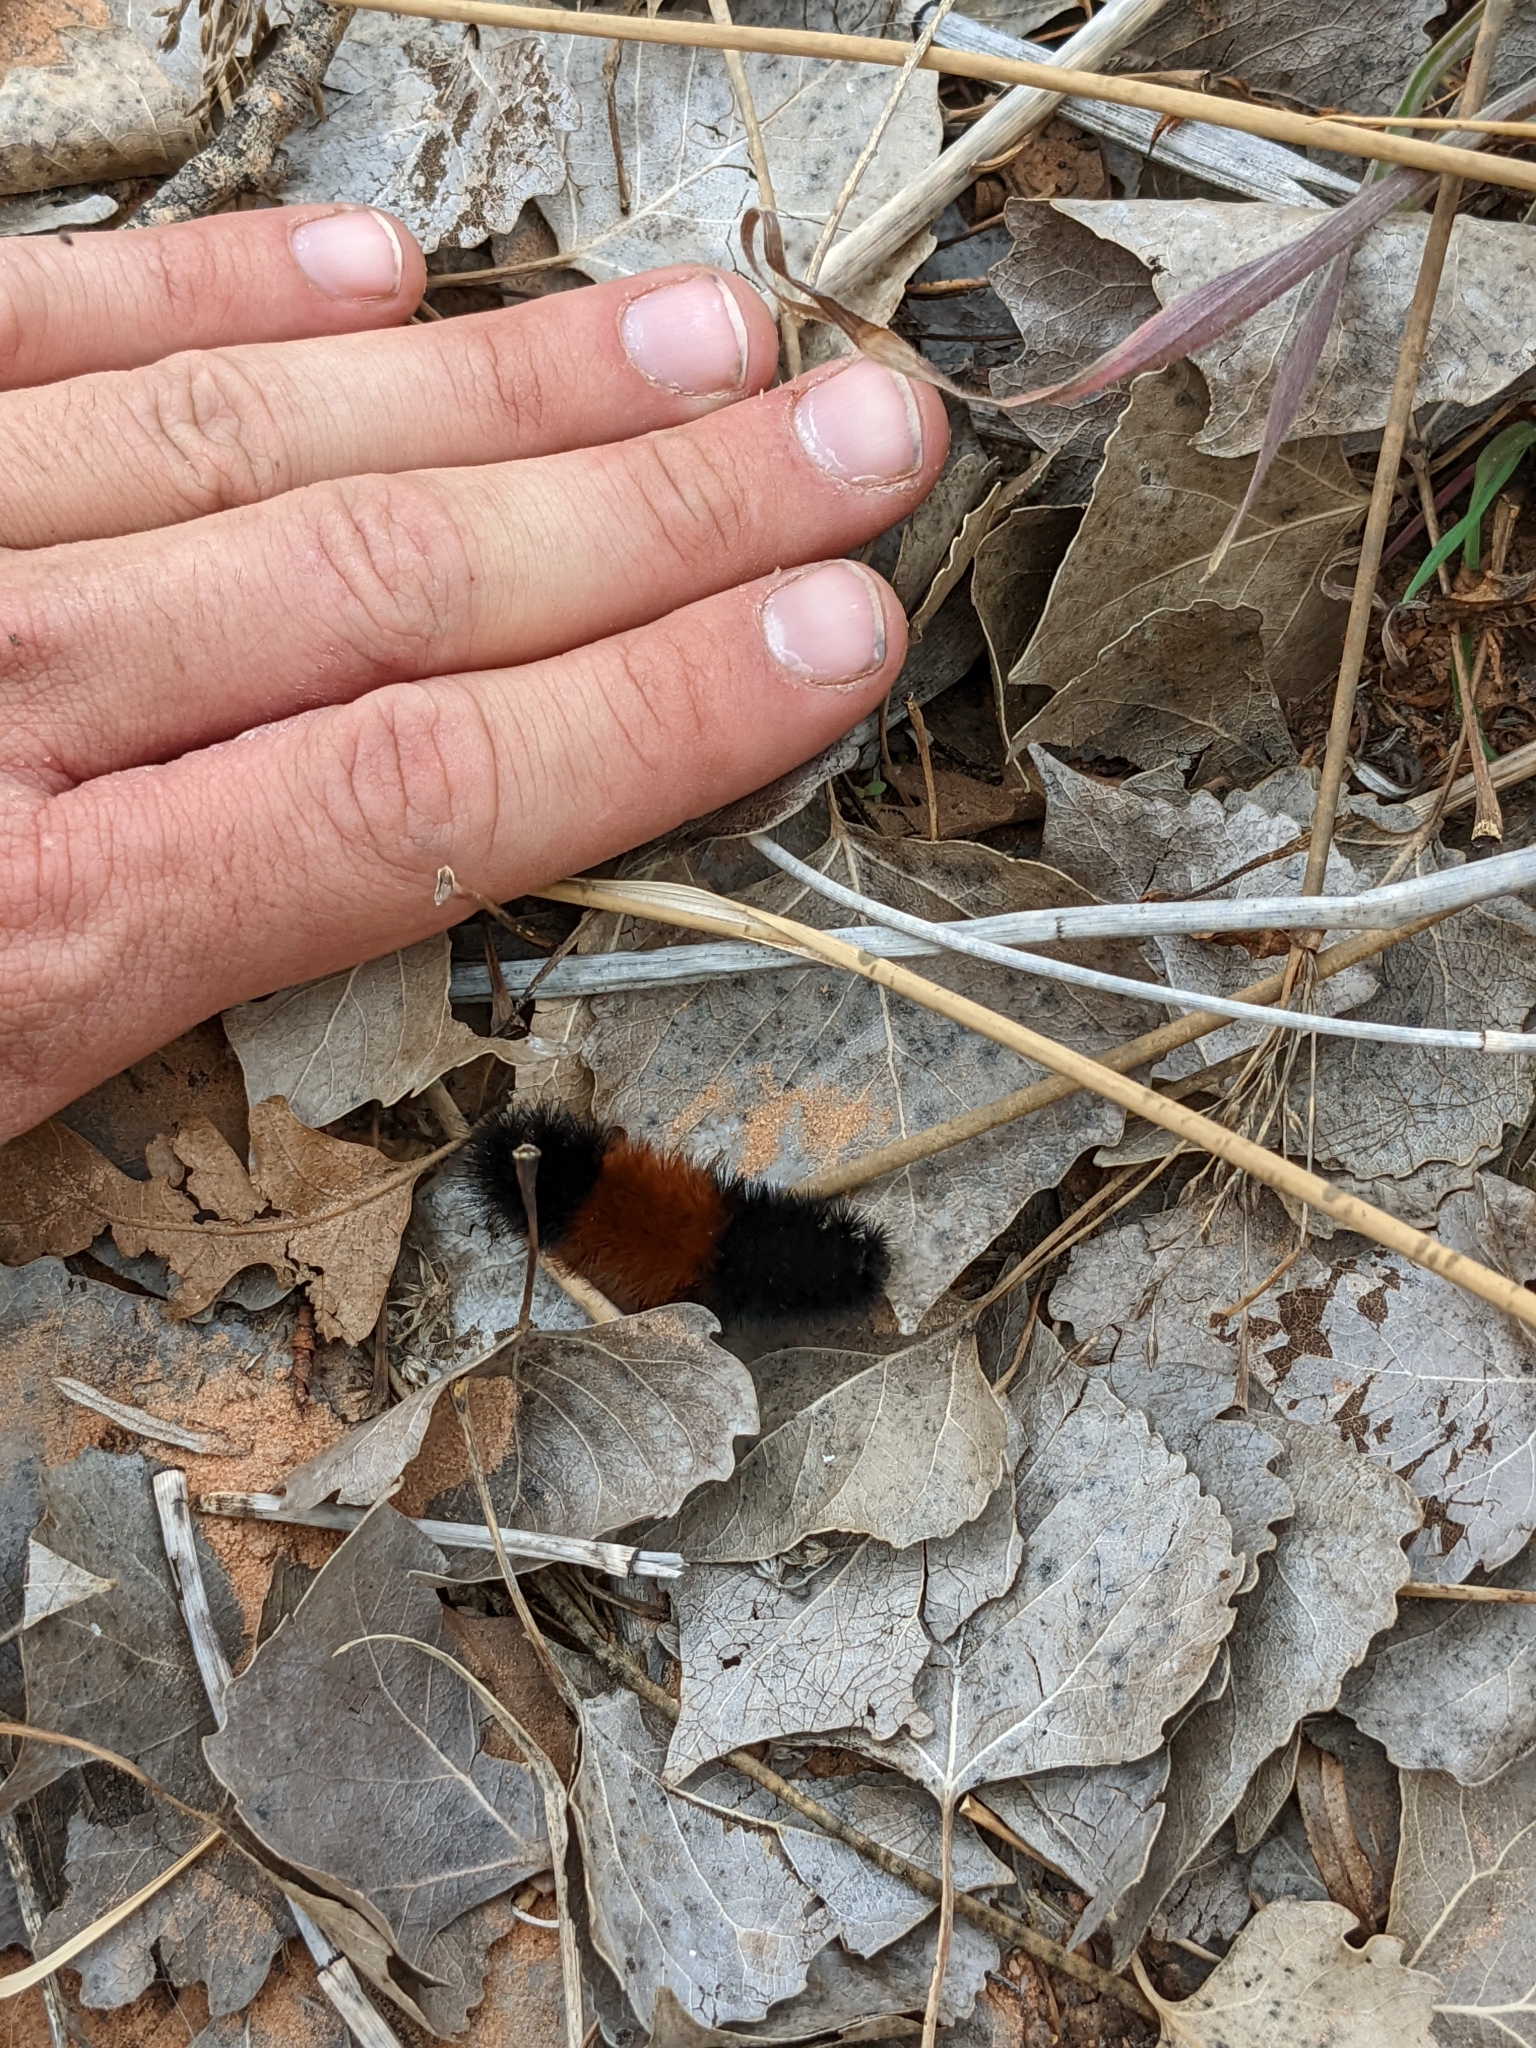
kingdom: Animalia
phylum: Arthropoda
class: Insecta
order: Lepidoptera
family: Erebidae
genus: Pyrrharctia
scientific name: Pyrrharctia isabella
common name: Isabella tiger moth
